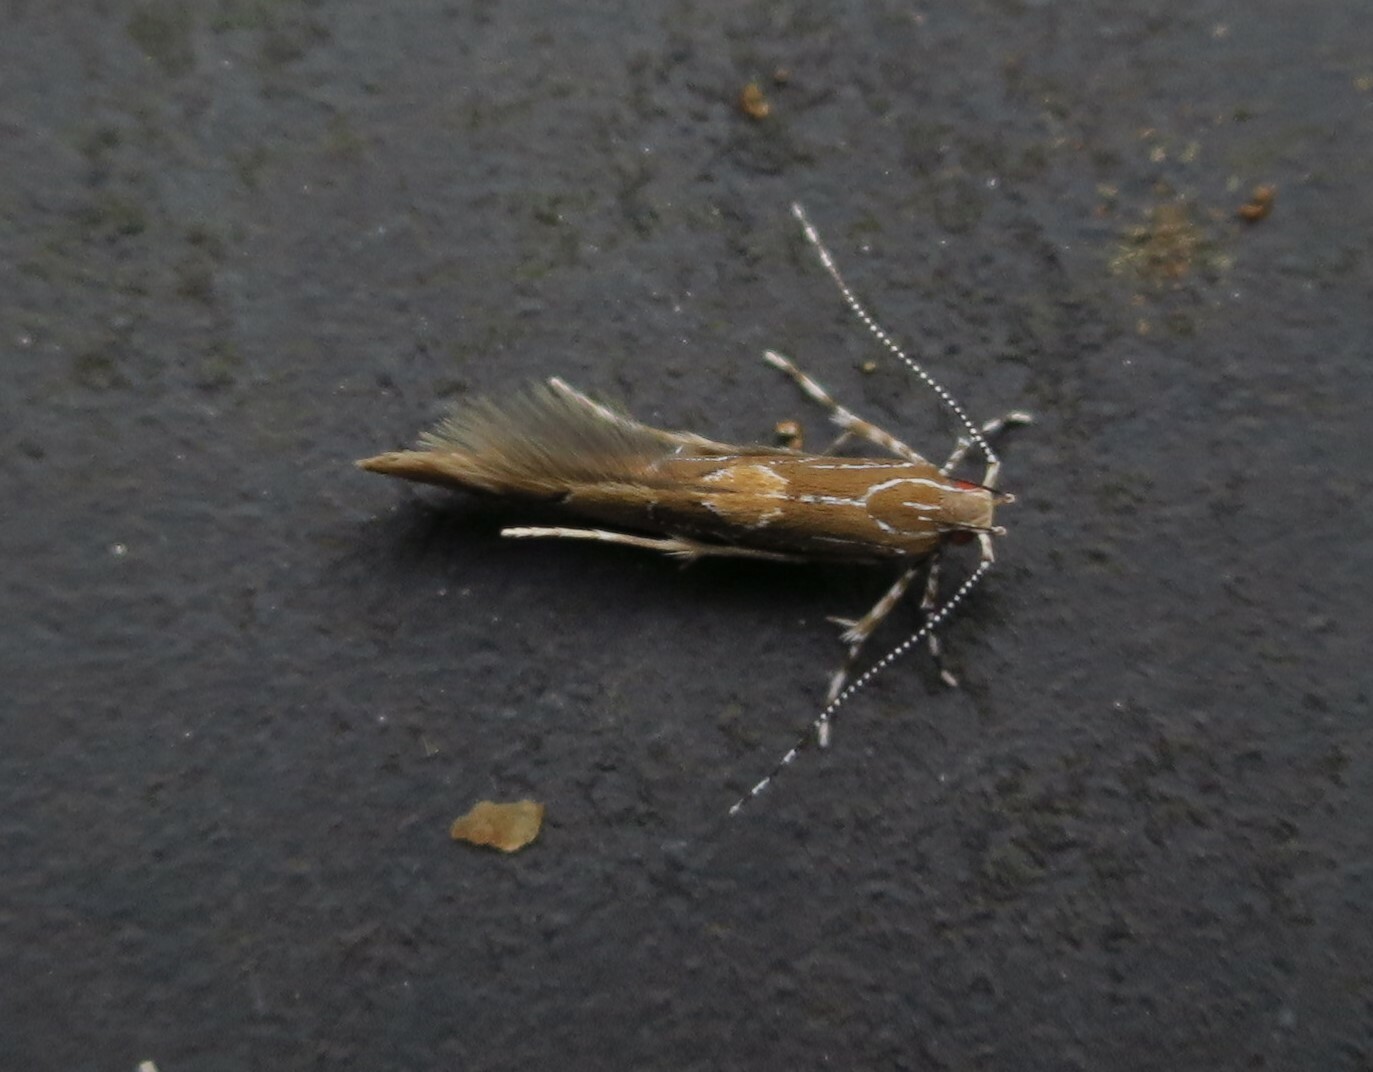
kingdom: Animalia
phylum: Arthropoda
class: Insecta
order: Lepidoptera
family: Cosmopterigidae
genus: Pyroderces
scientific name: Pyroderces apparitella
